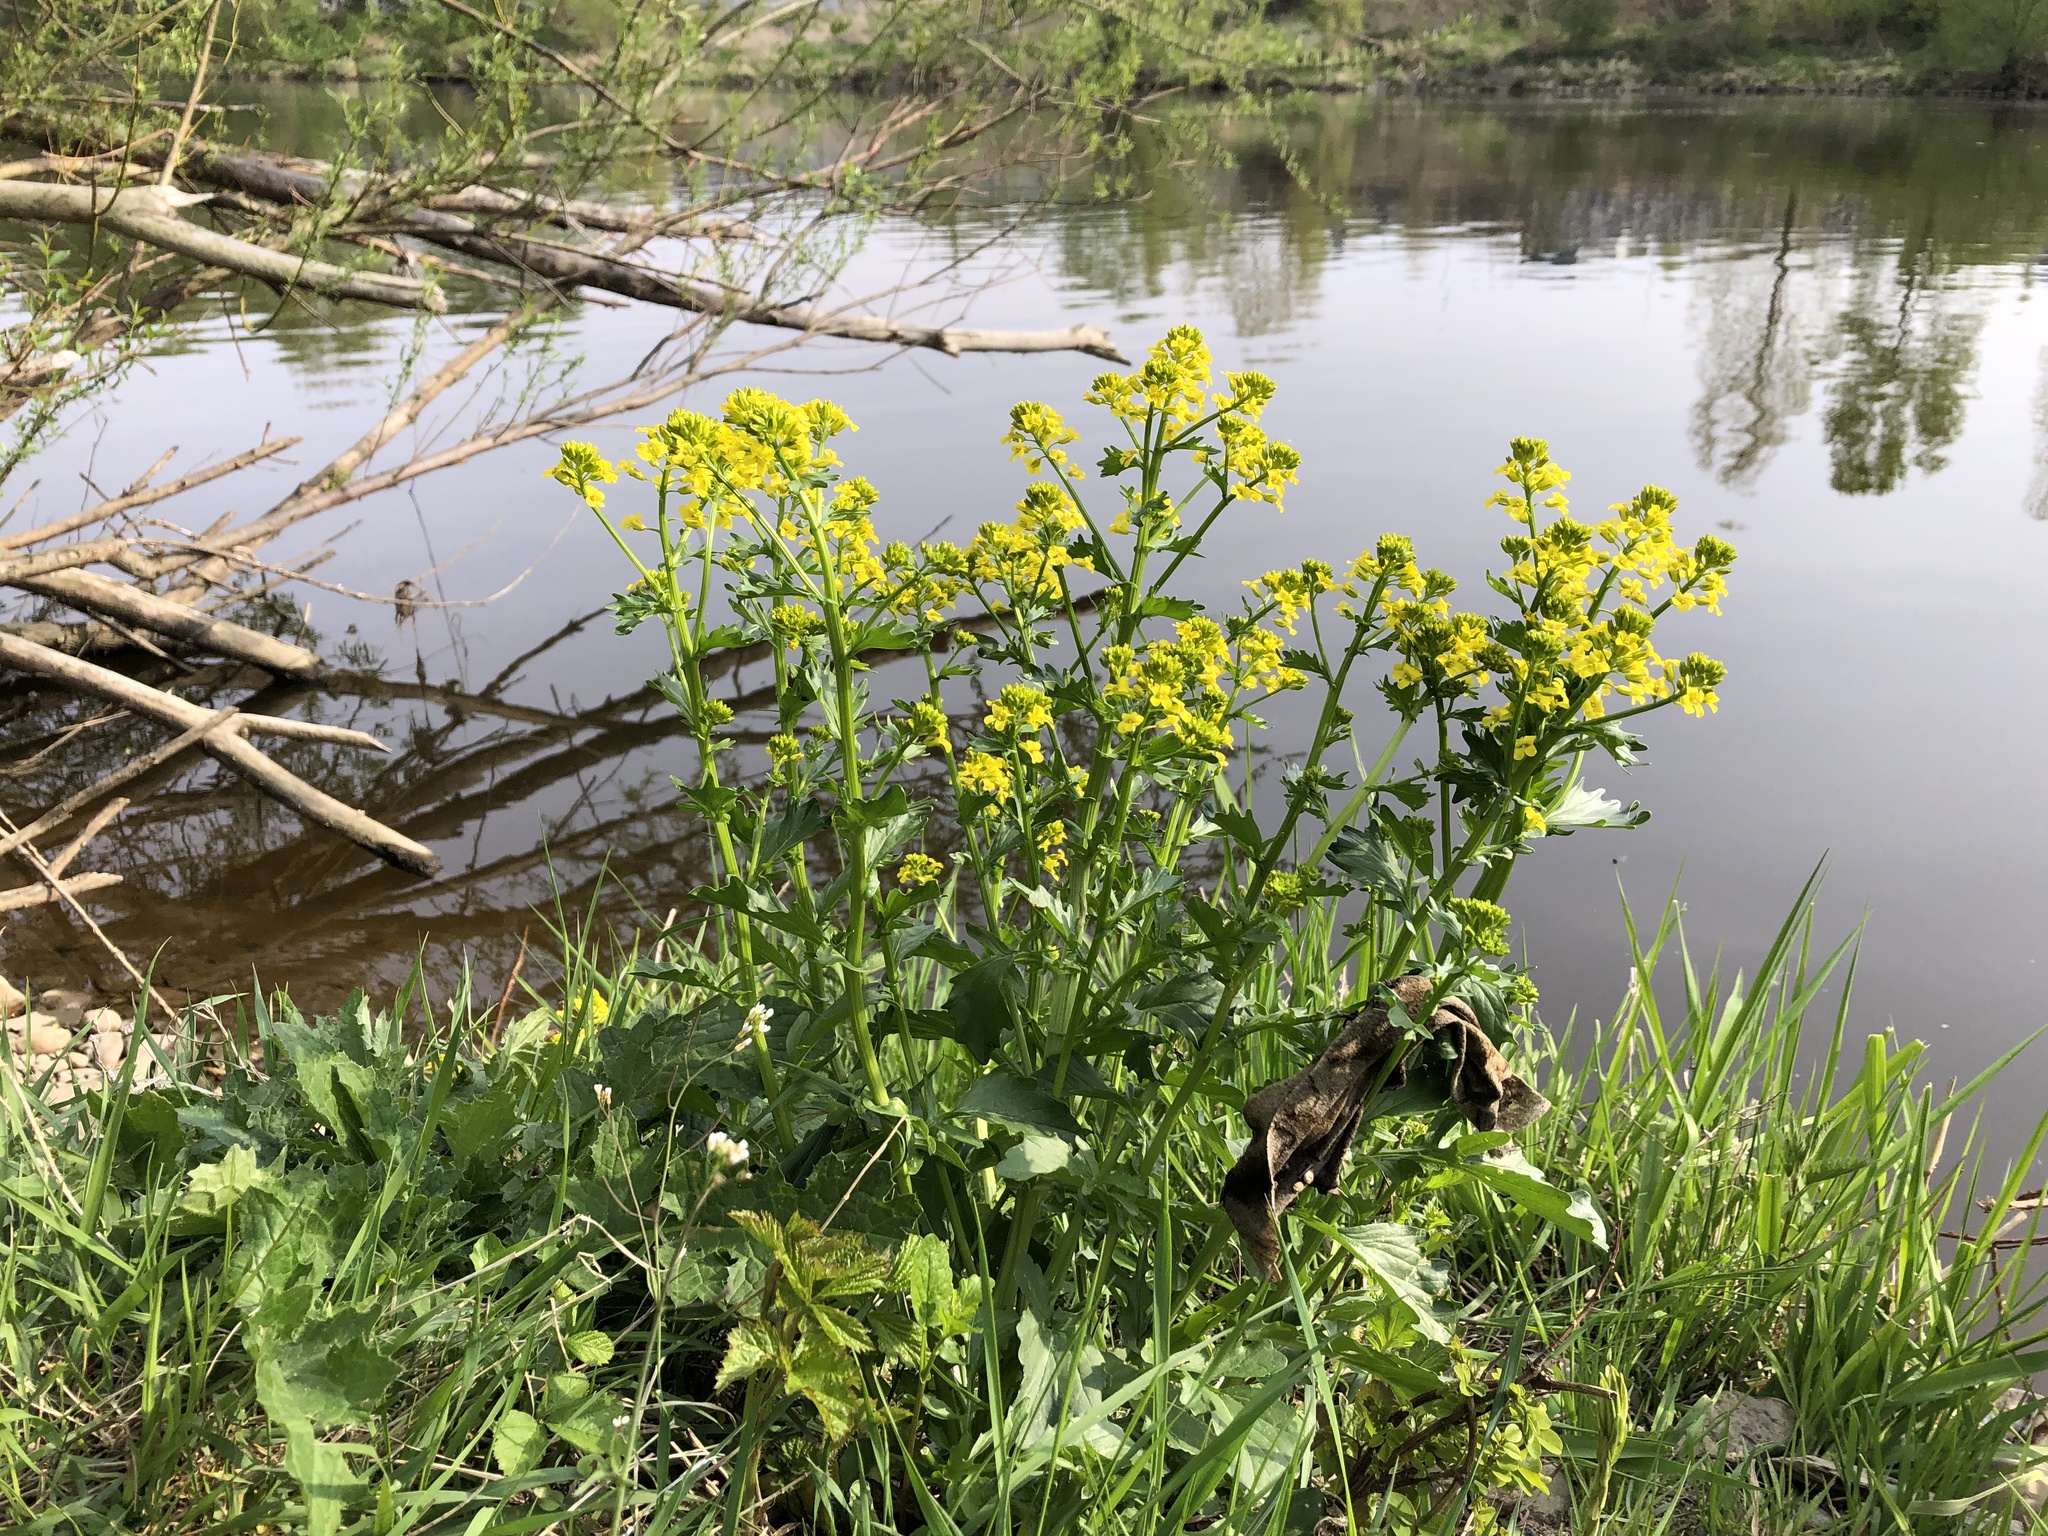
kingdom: Plantae
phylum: Tracheophyta
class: Magnoliopsida
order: Brassicales
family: Brassicaceae
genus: Barbarea
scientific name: Barbarea vulgaris
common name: Cressy-greens
